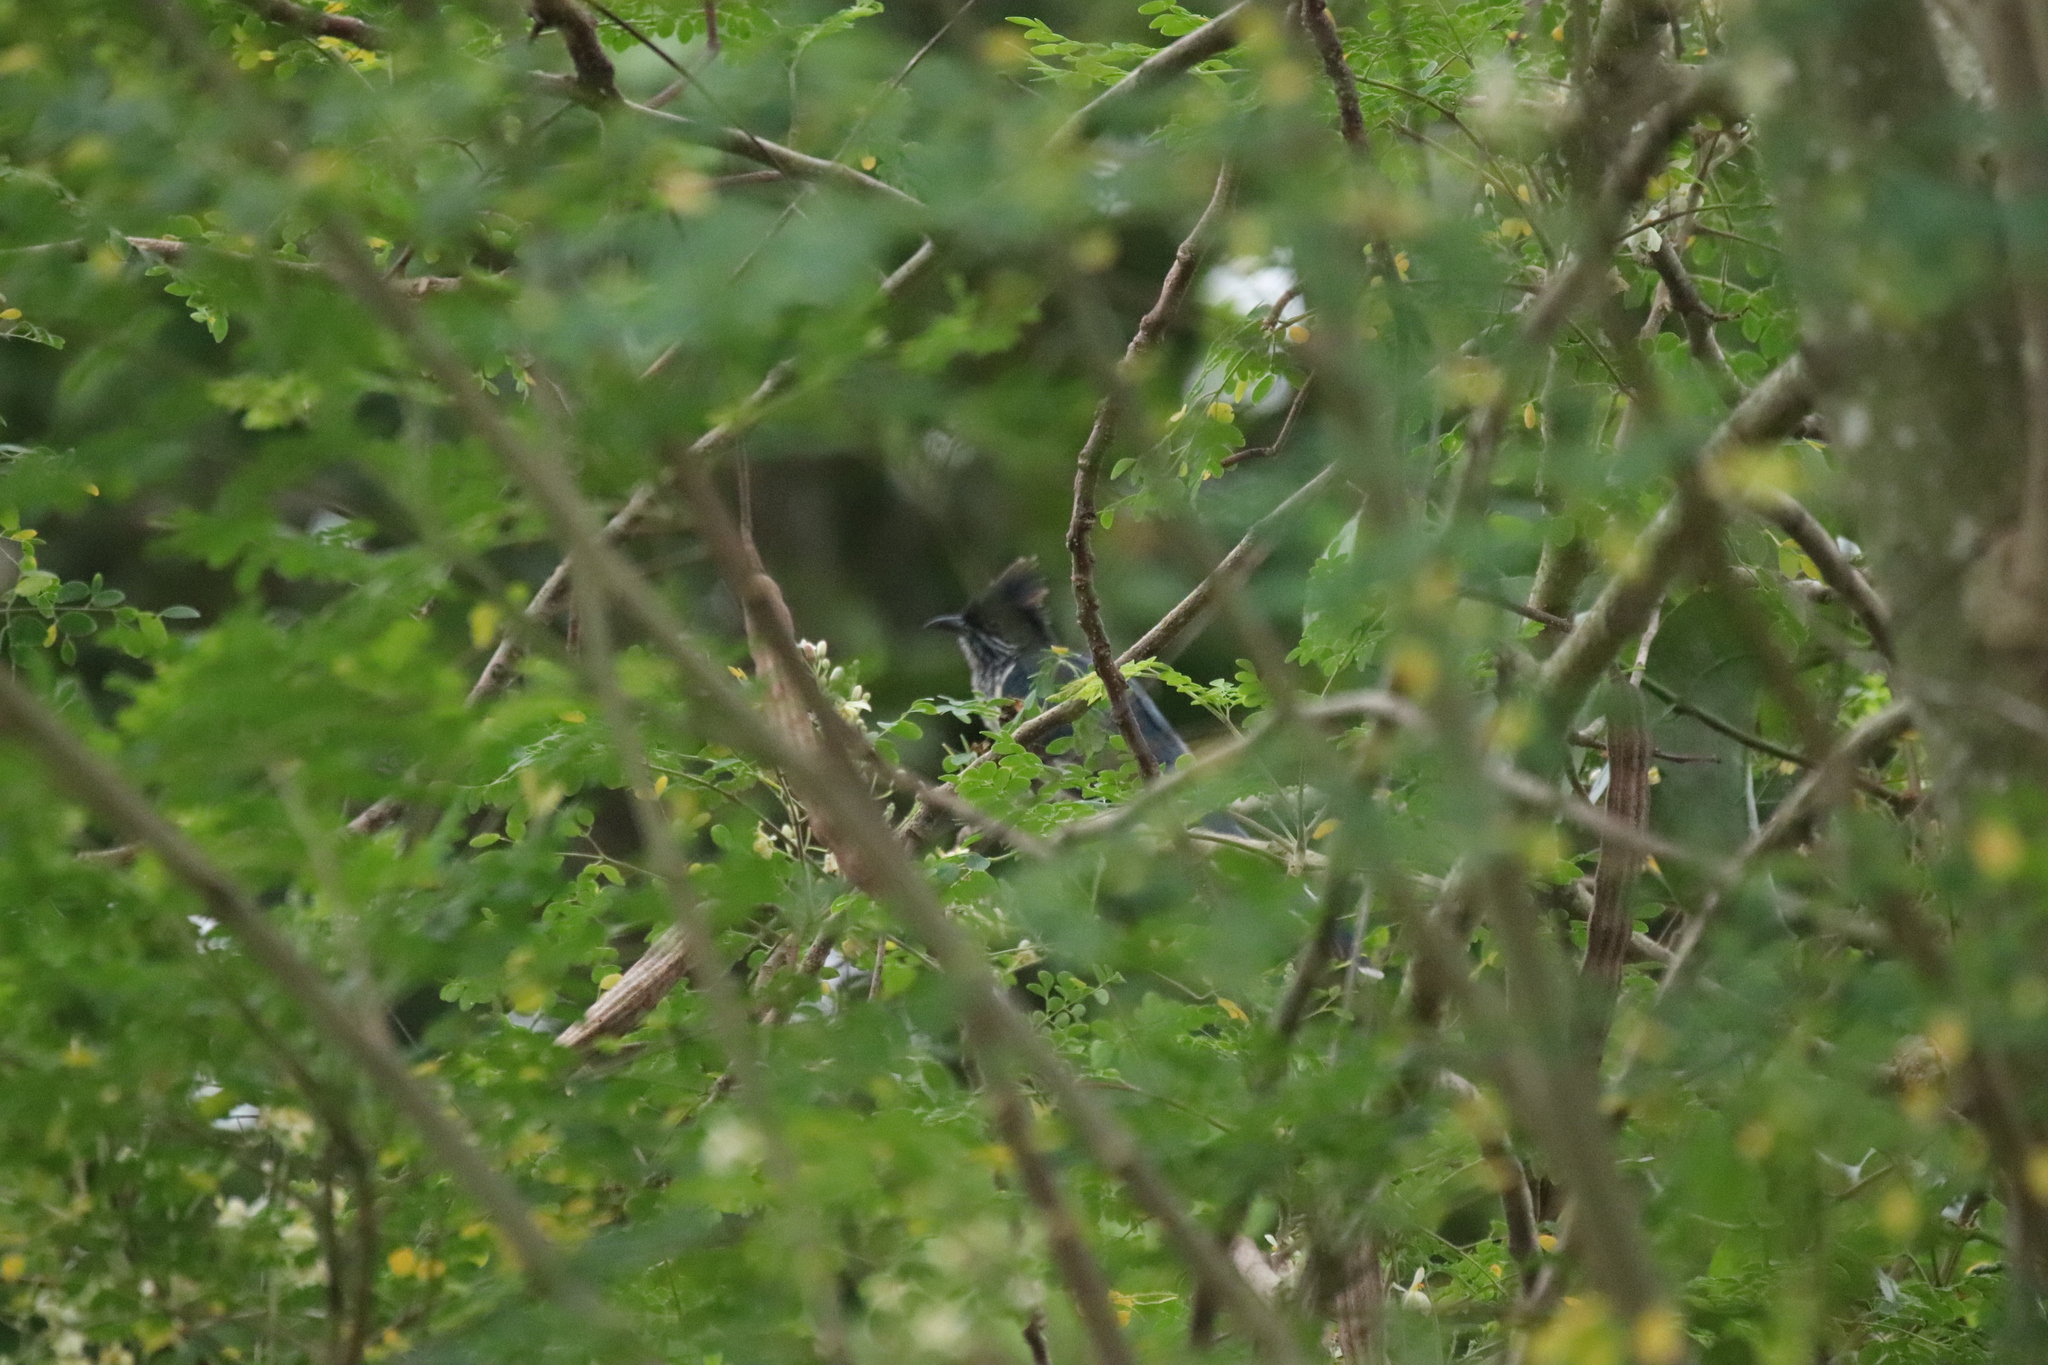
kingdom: Animalia
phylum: Chordata
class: Aves
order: Cuculiformes
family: Cuculidae
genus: Clamator
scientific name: Clamator levaillantii
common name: Levaillant's cuckoo
